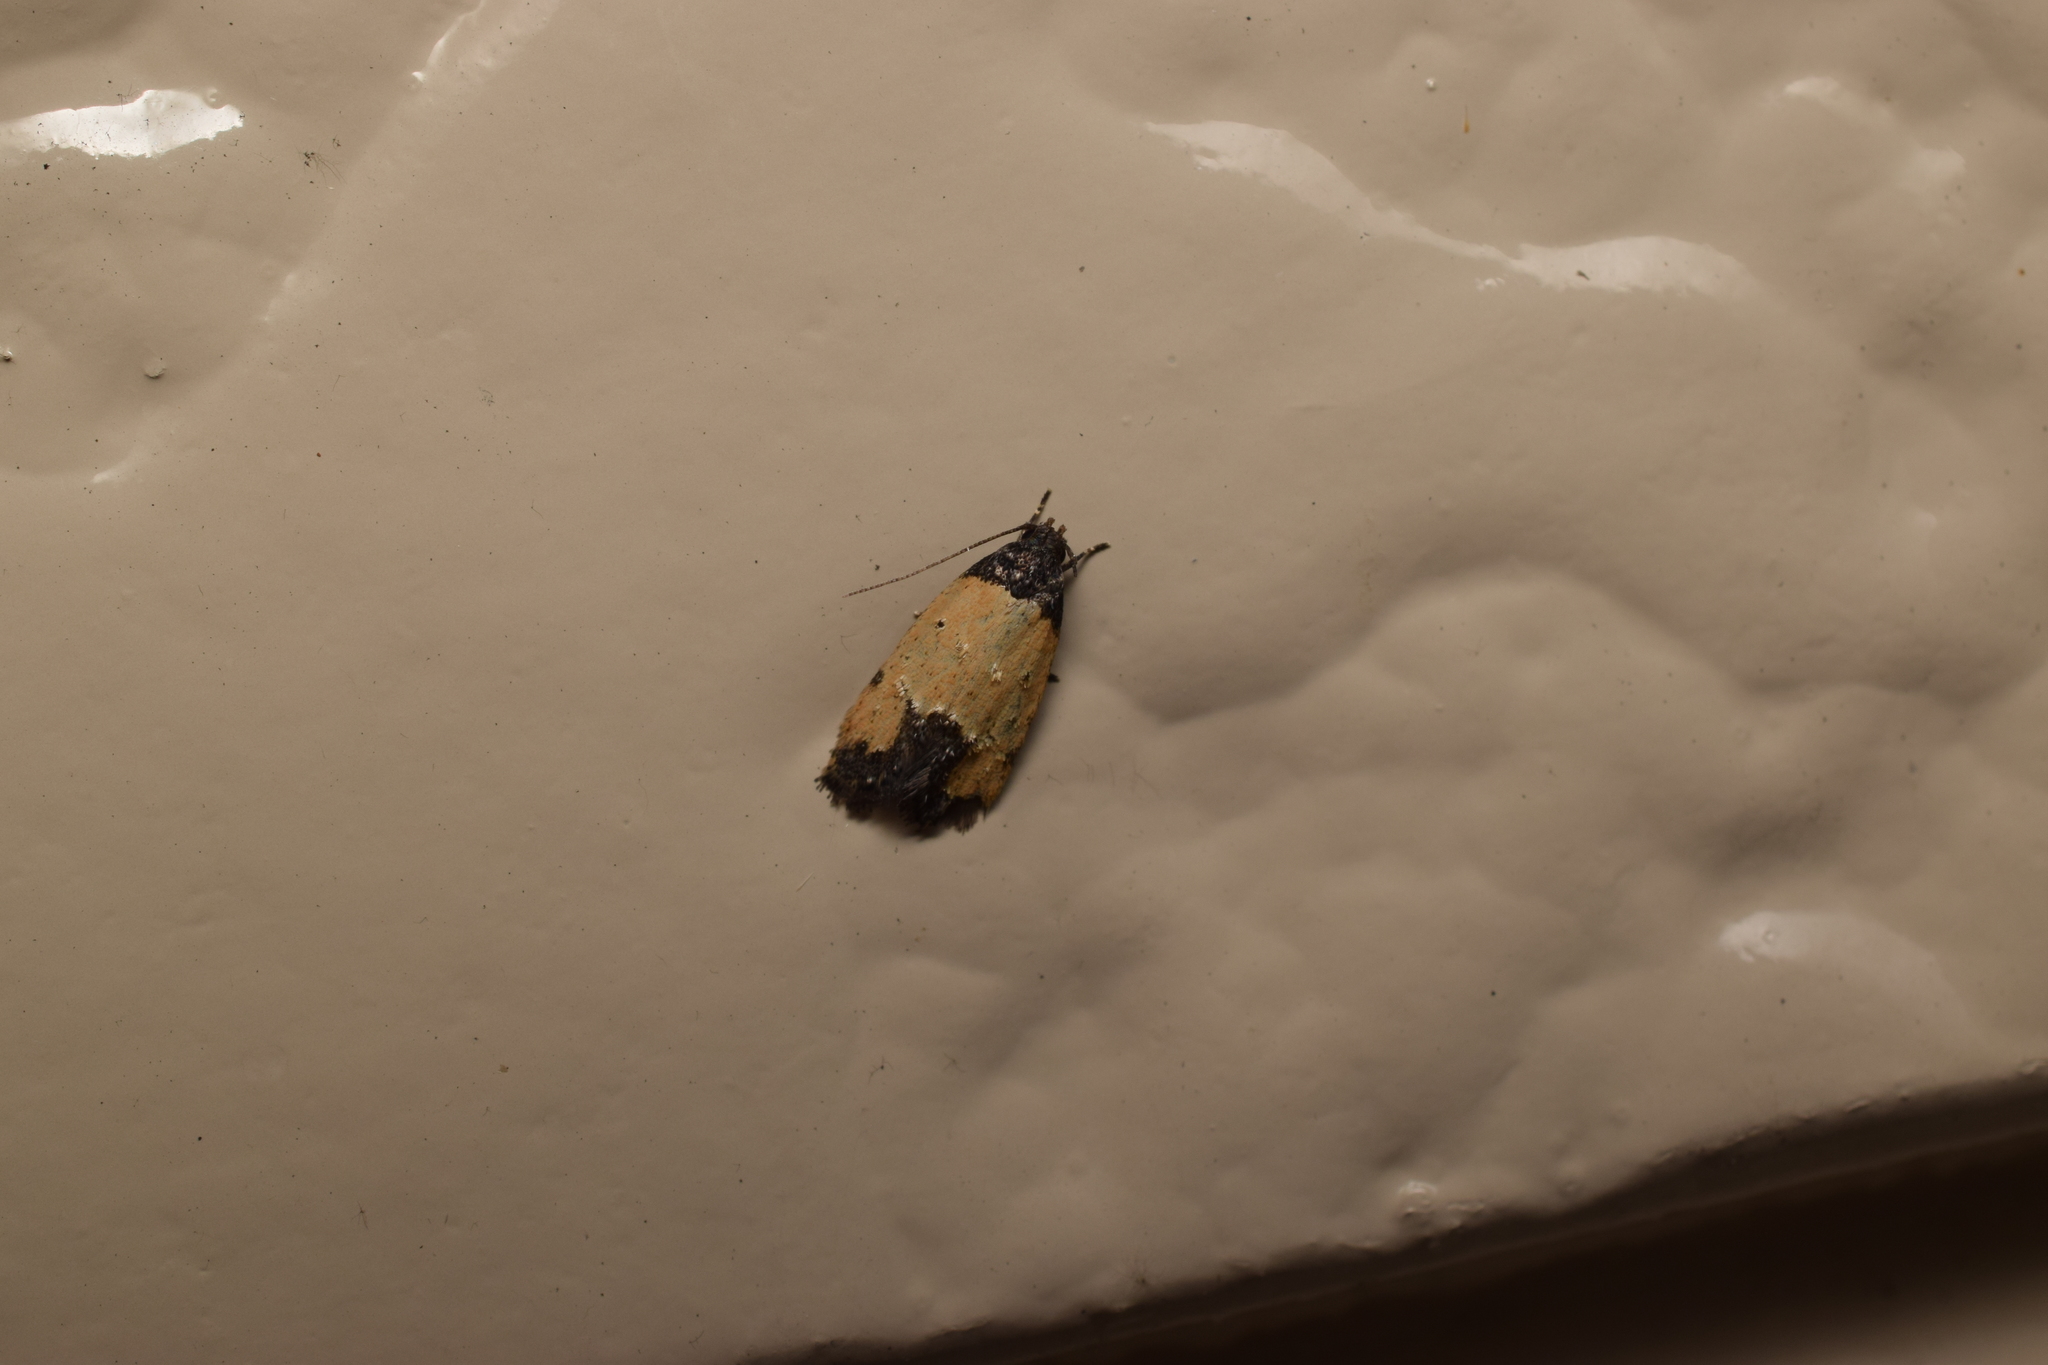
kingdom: Animalia
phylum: Arthropoda
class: Insecta
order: Lepidoptera
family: Oecophoridae
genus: Tyrolimnas
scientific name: Tyrolimnas anthraconesa
